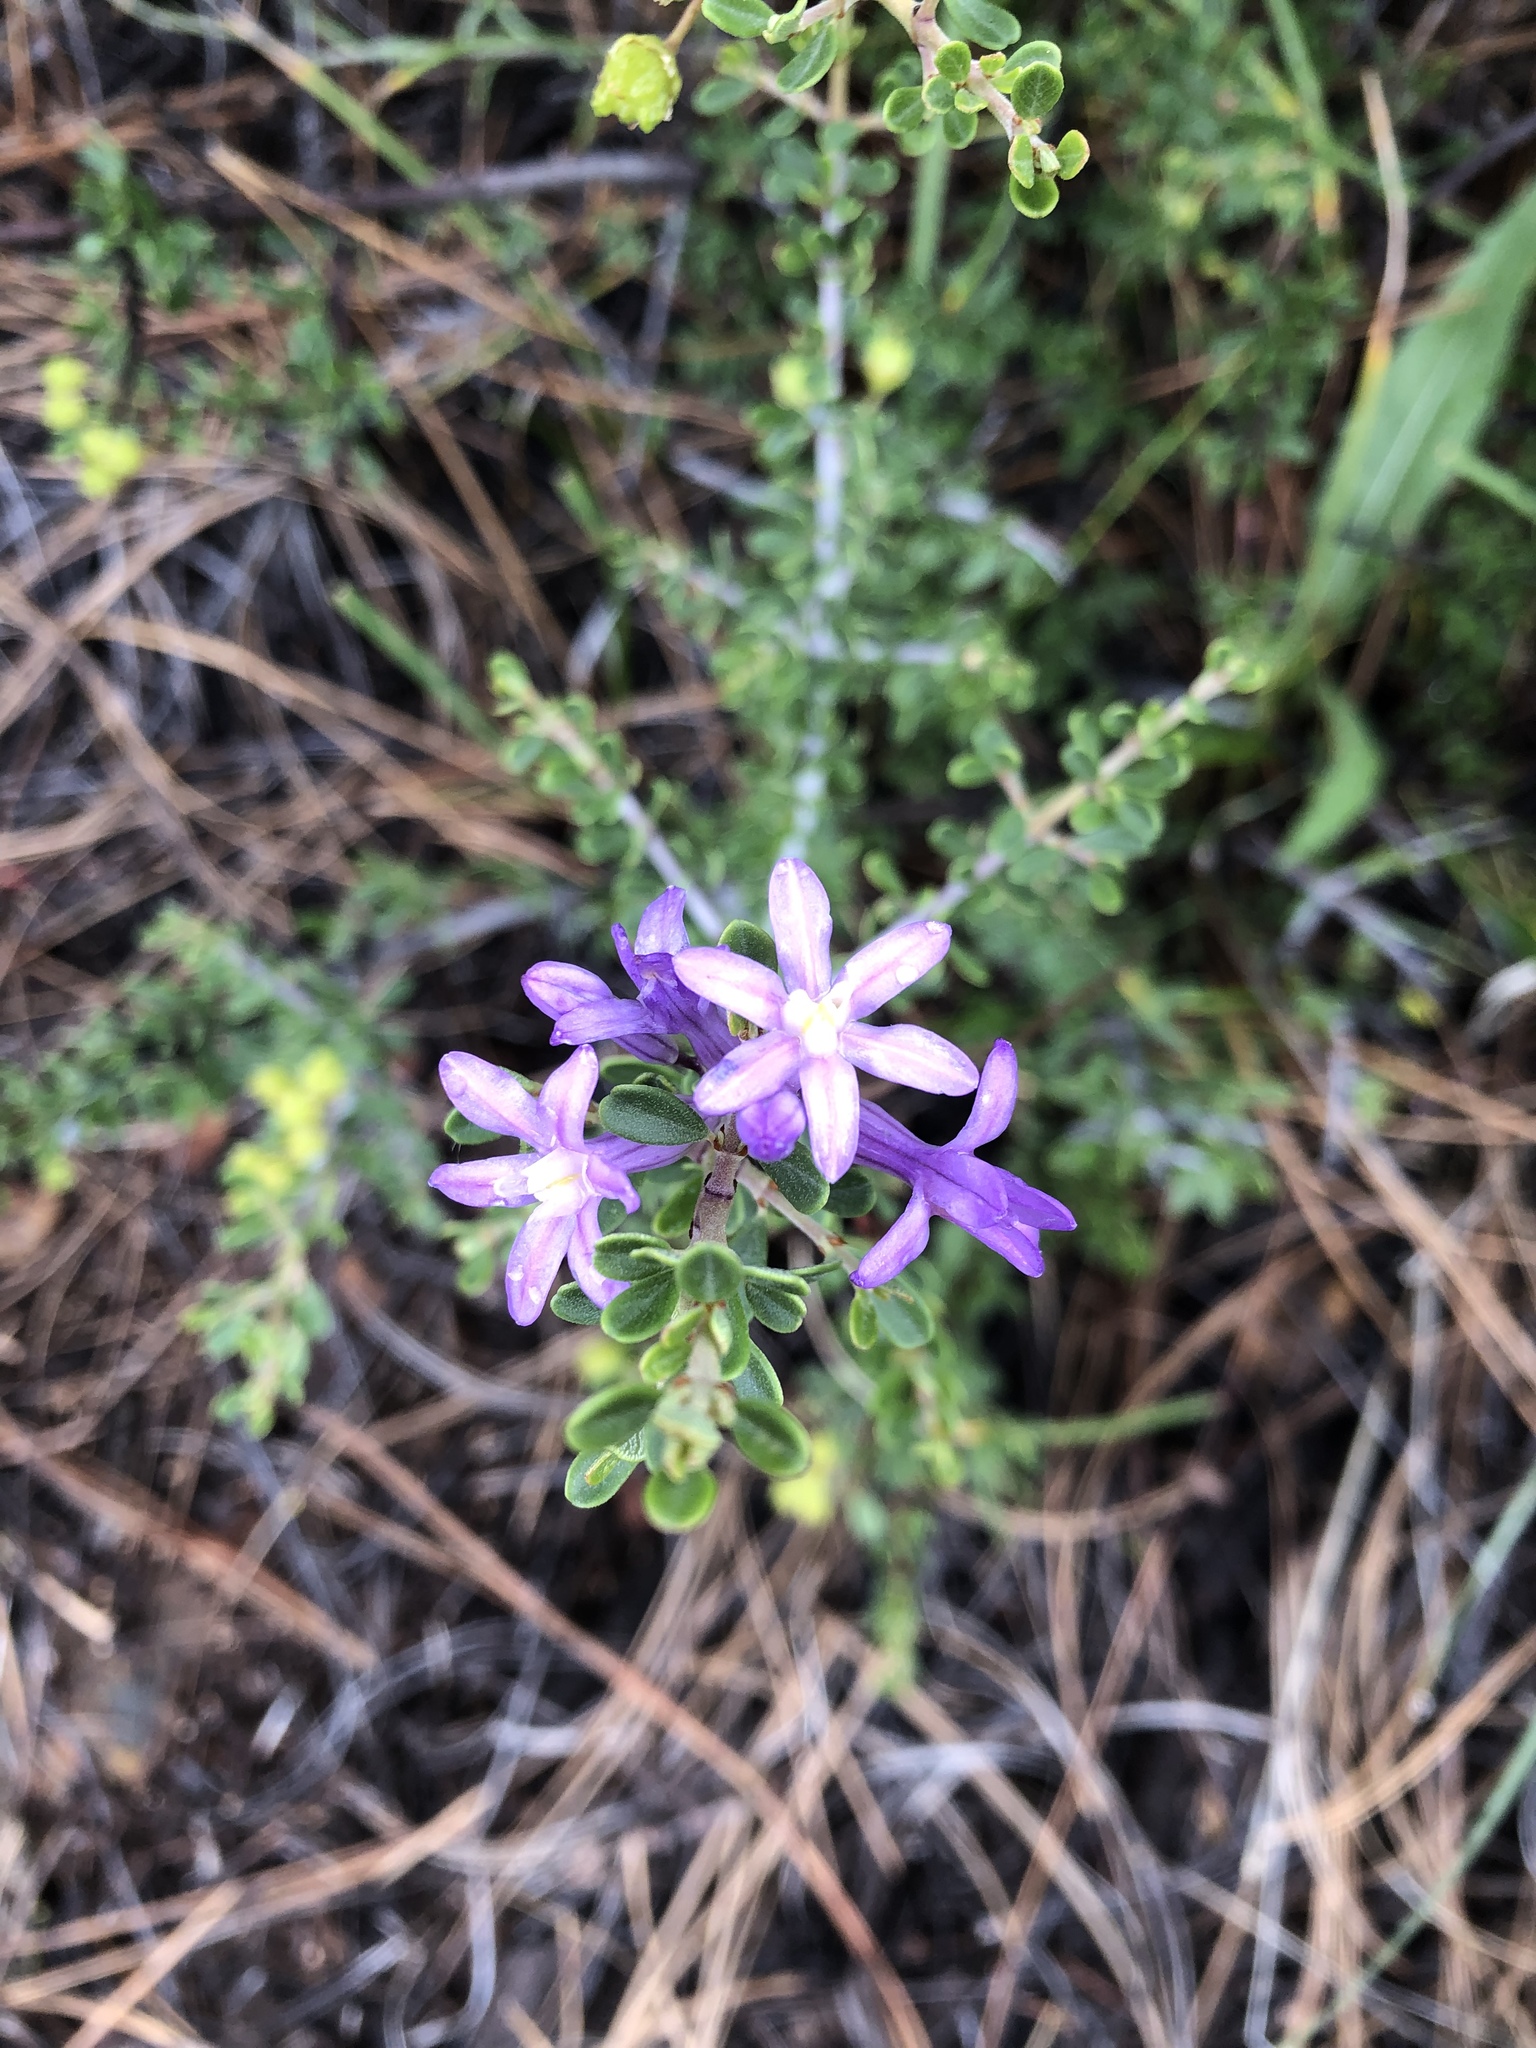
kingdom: Plantae
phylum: Tracheophyta
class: Liliopsida
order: Asparagales
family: Asparagaceae
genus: Dichelostemma
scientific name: Dichelostemma multiflorum
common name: Round-tooth ookow
